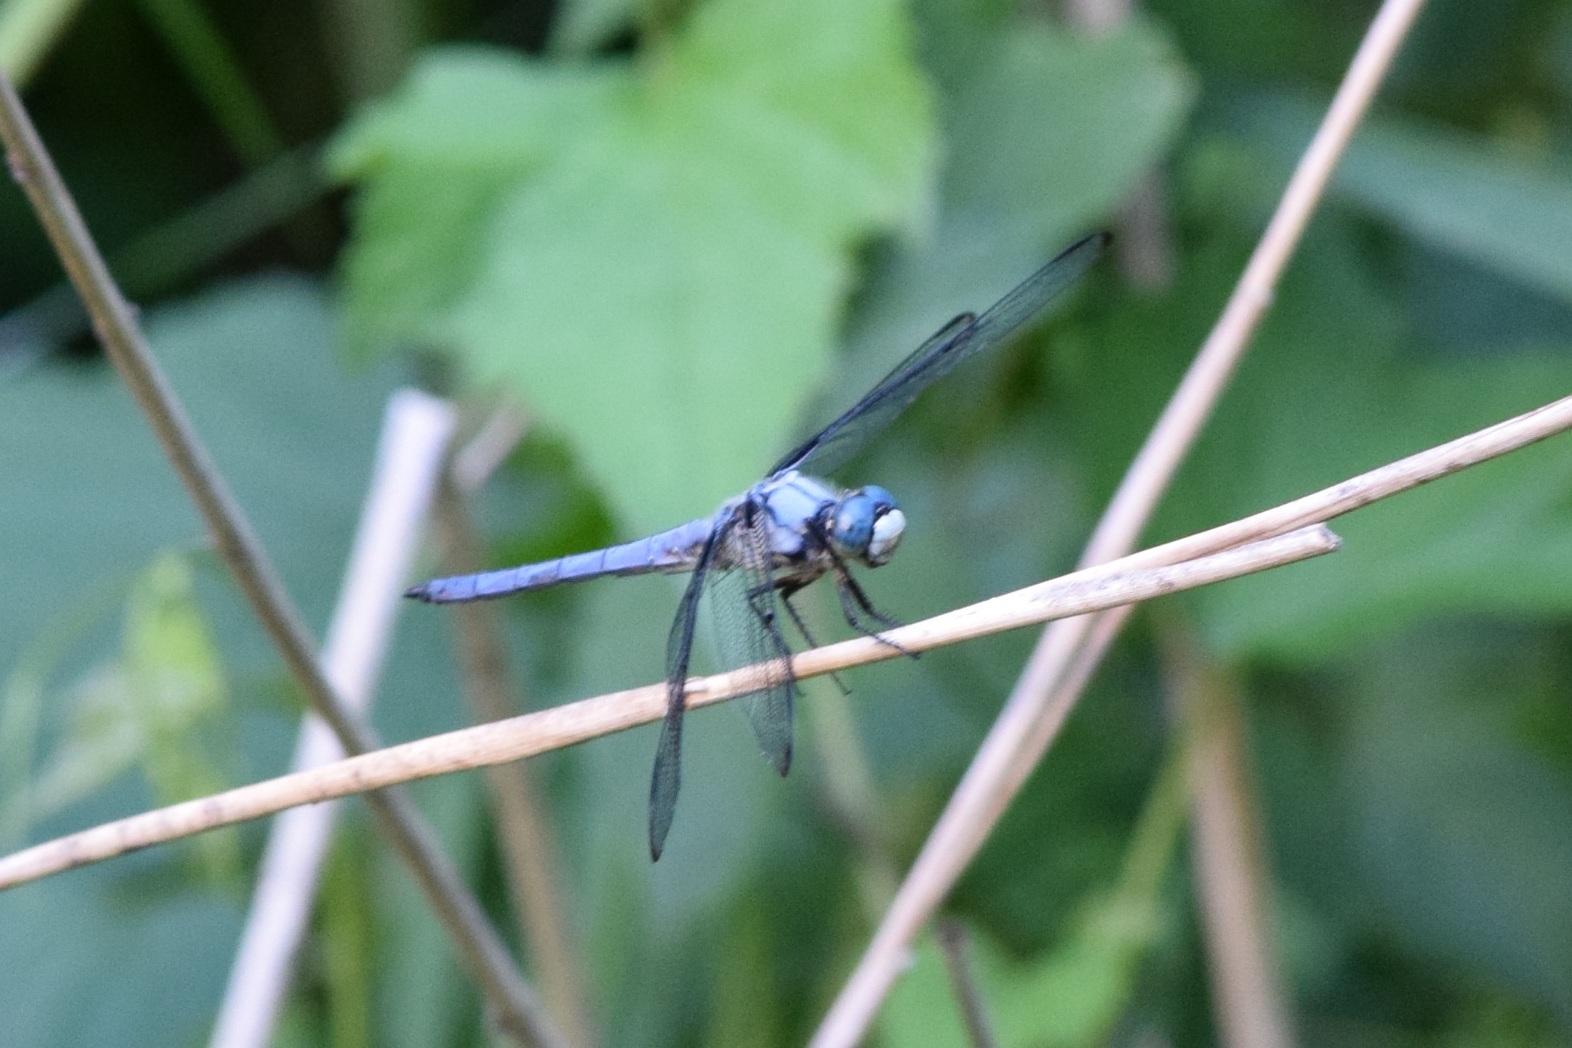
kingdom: Animalia
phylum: Arthropoda
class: Insecta
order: Odonata
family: Libellulidae
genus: Libellula
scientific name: Libellula vibrans
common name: Great blue skimmer
